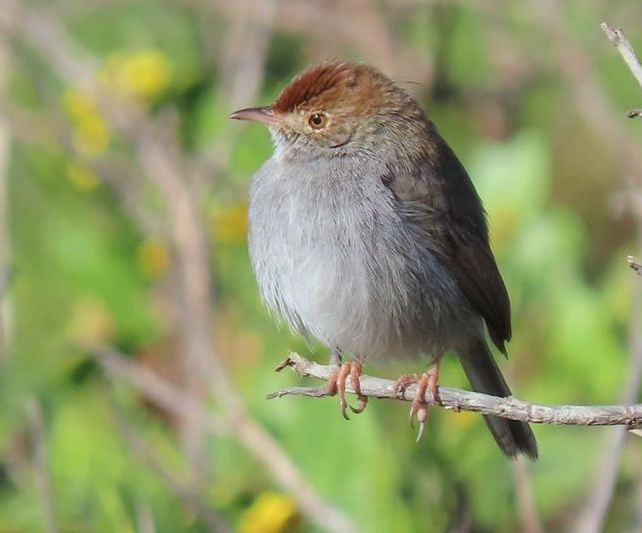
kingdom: Animalia
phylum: Chordata
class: Aves
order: Passeriformes
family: Cisticolidae
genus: Cisticola
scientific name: Cisticola fulvicapilla
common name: Neddicky
